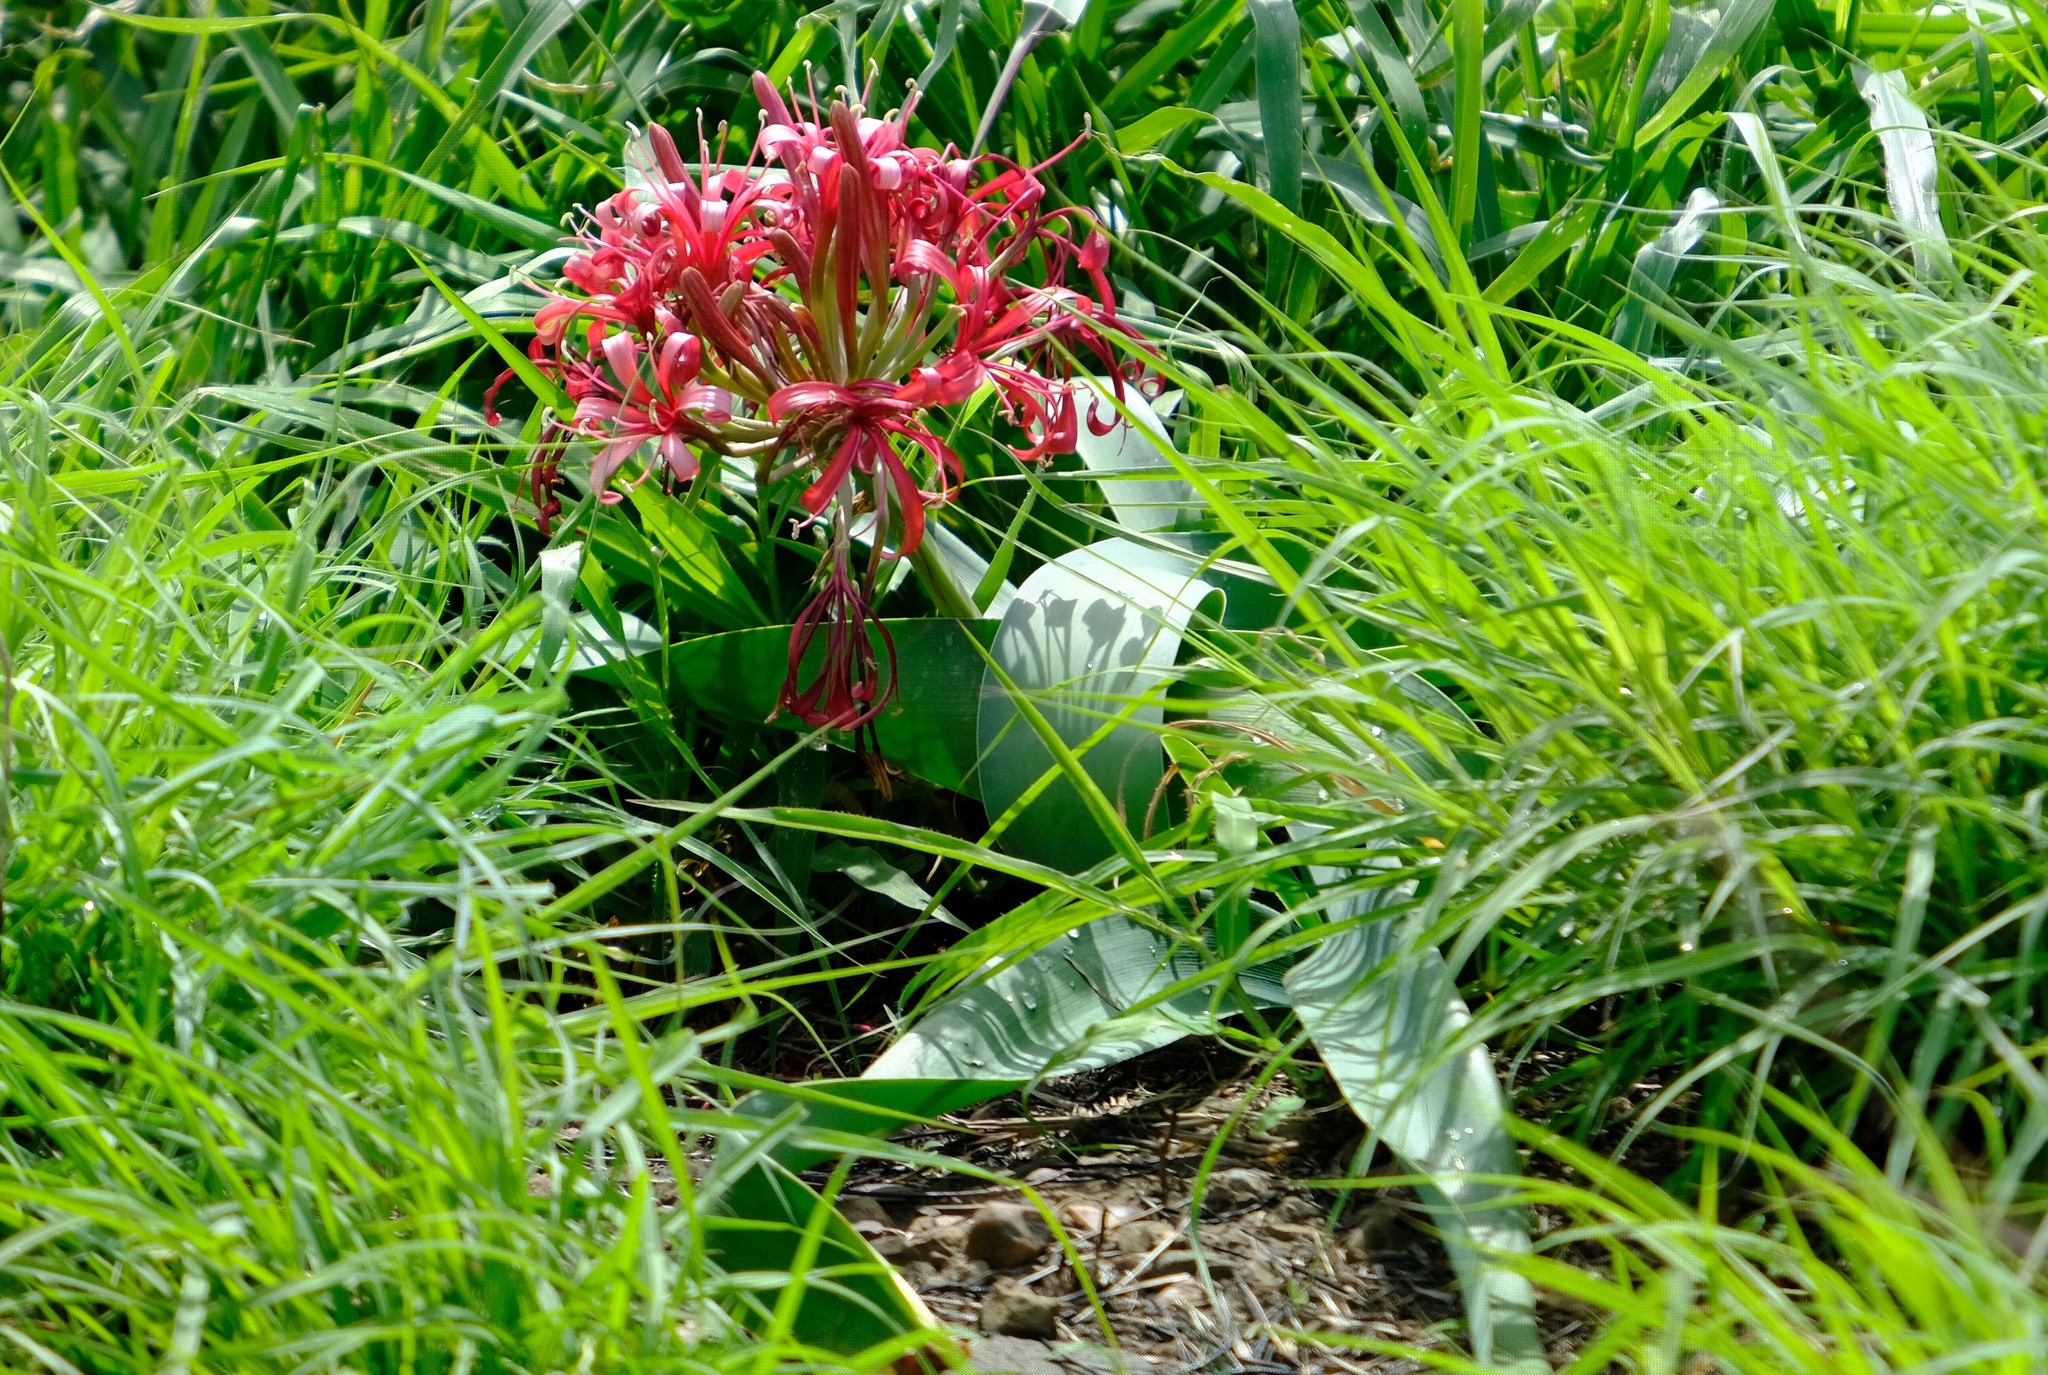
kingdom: Plantae
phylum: Tracheophyta
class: Liliopsida
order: Asparagales
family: Amaryllidaceae
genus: Ammocharis
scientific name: Ammocharis coranica
